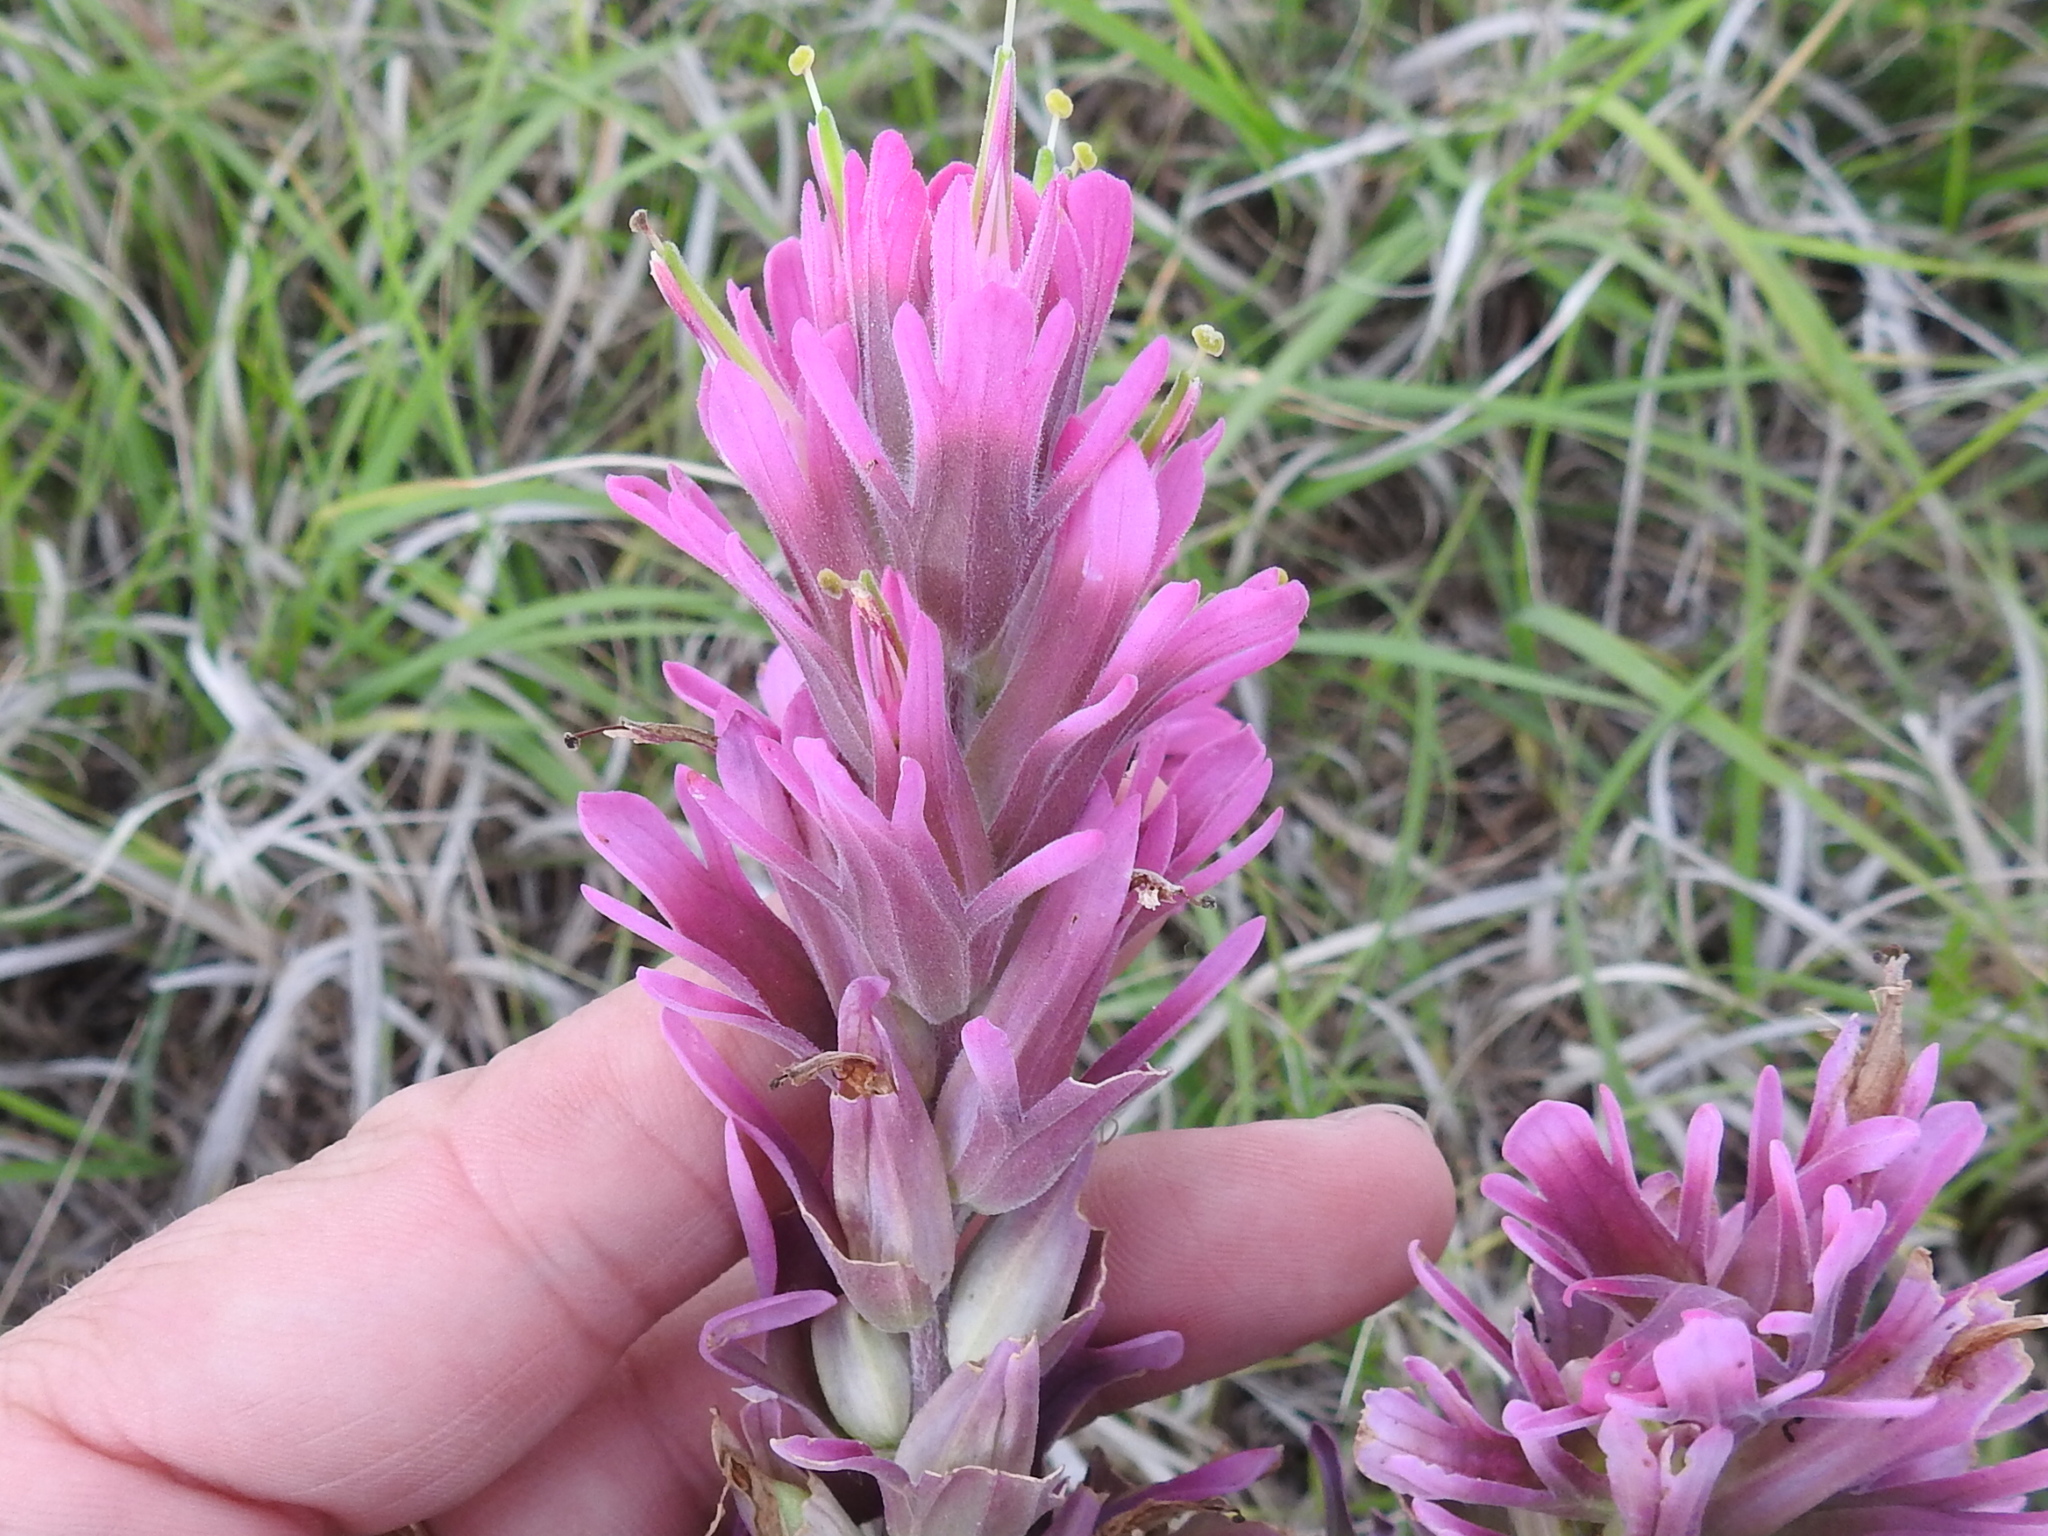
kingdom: Plantae
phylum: Tracheophyta
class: Magnoliopsida
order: Lamiales
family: Orobanchaceae
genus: Castilleja
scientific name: Castilleja purpurea
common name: Plains paintbrush
